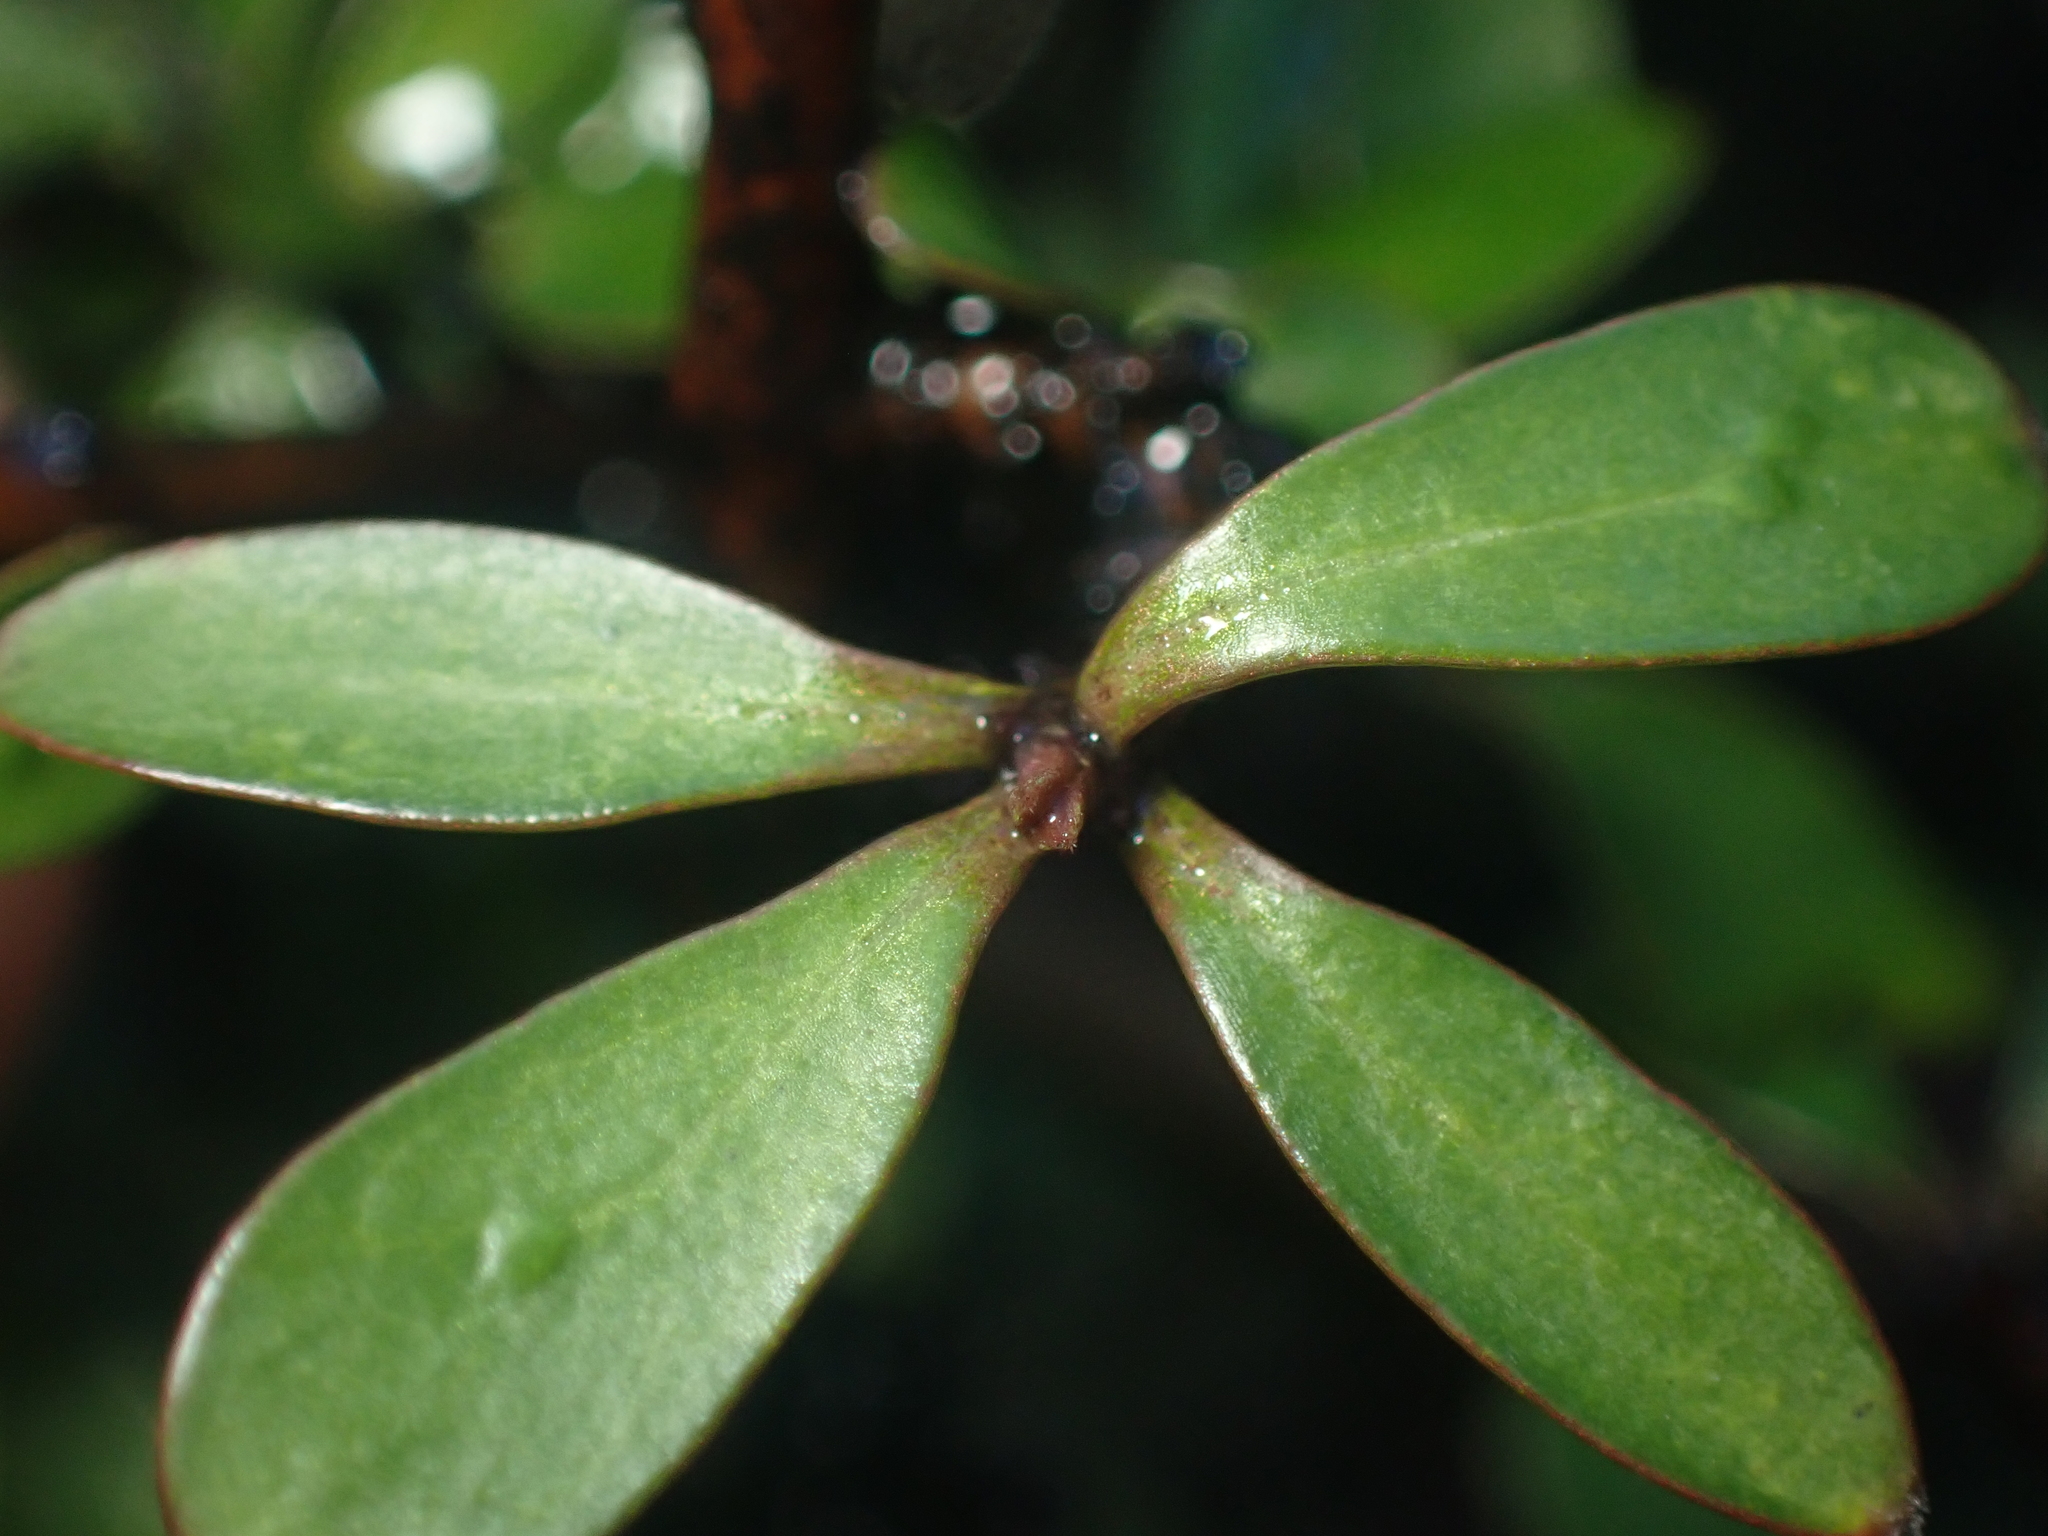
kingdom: Plantae
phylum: Tracheophyta
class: Magnoliopsida
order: Santalales
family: Viscaceae
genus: Korthalsella
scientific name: Korthalsella clavata
